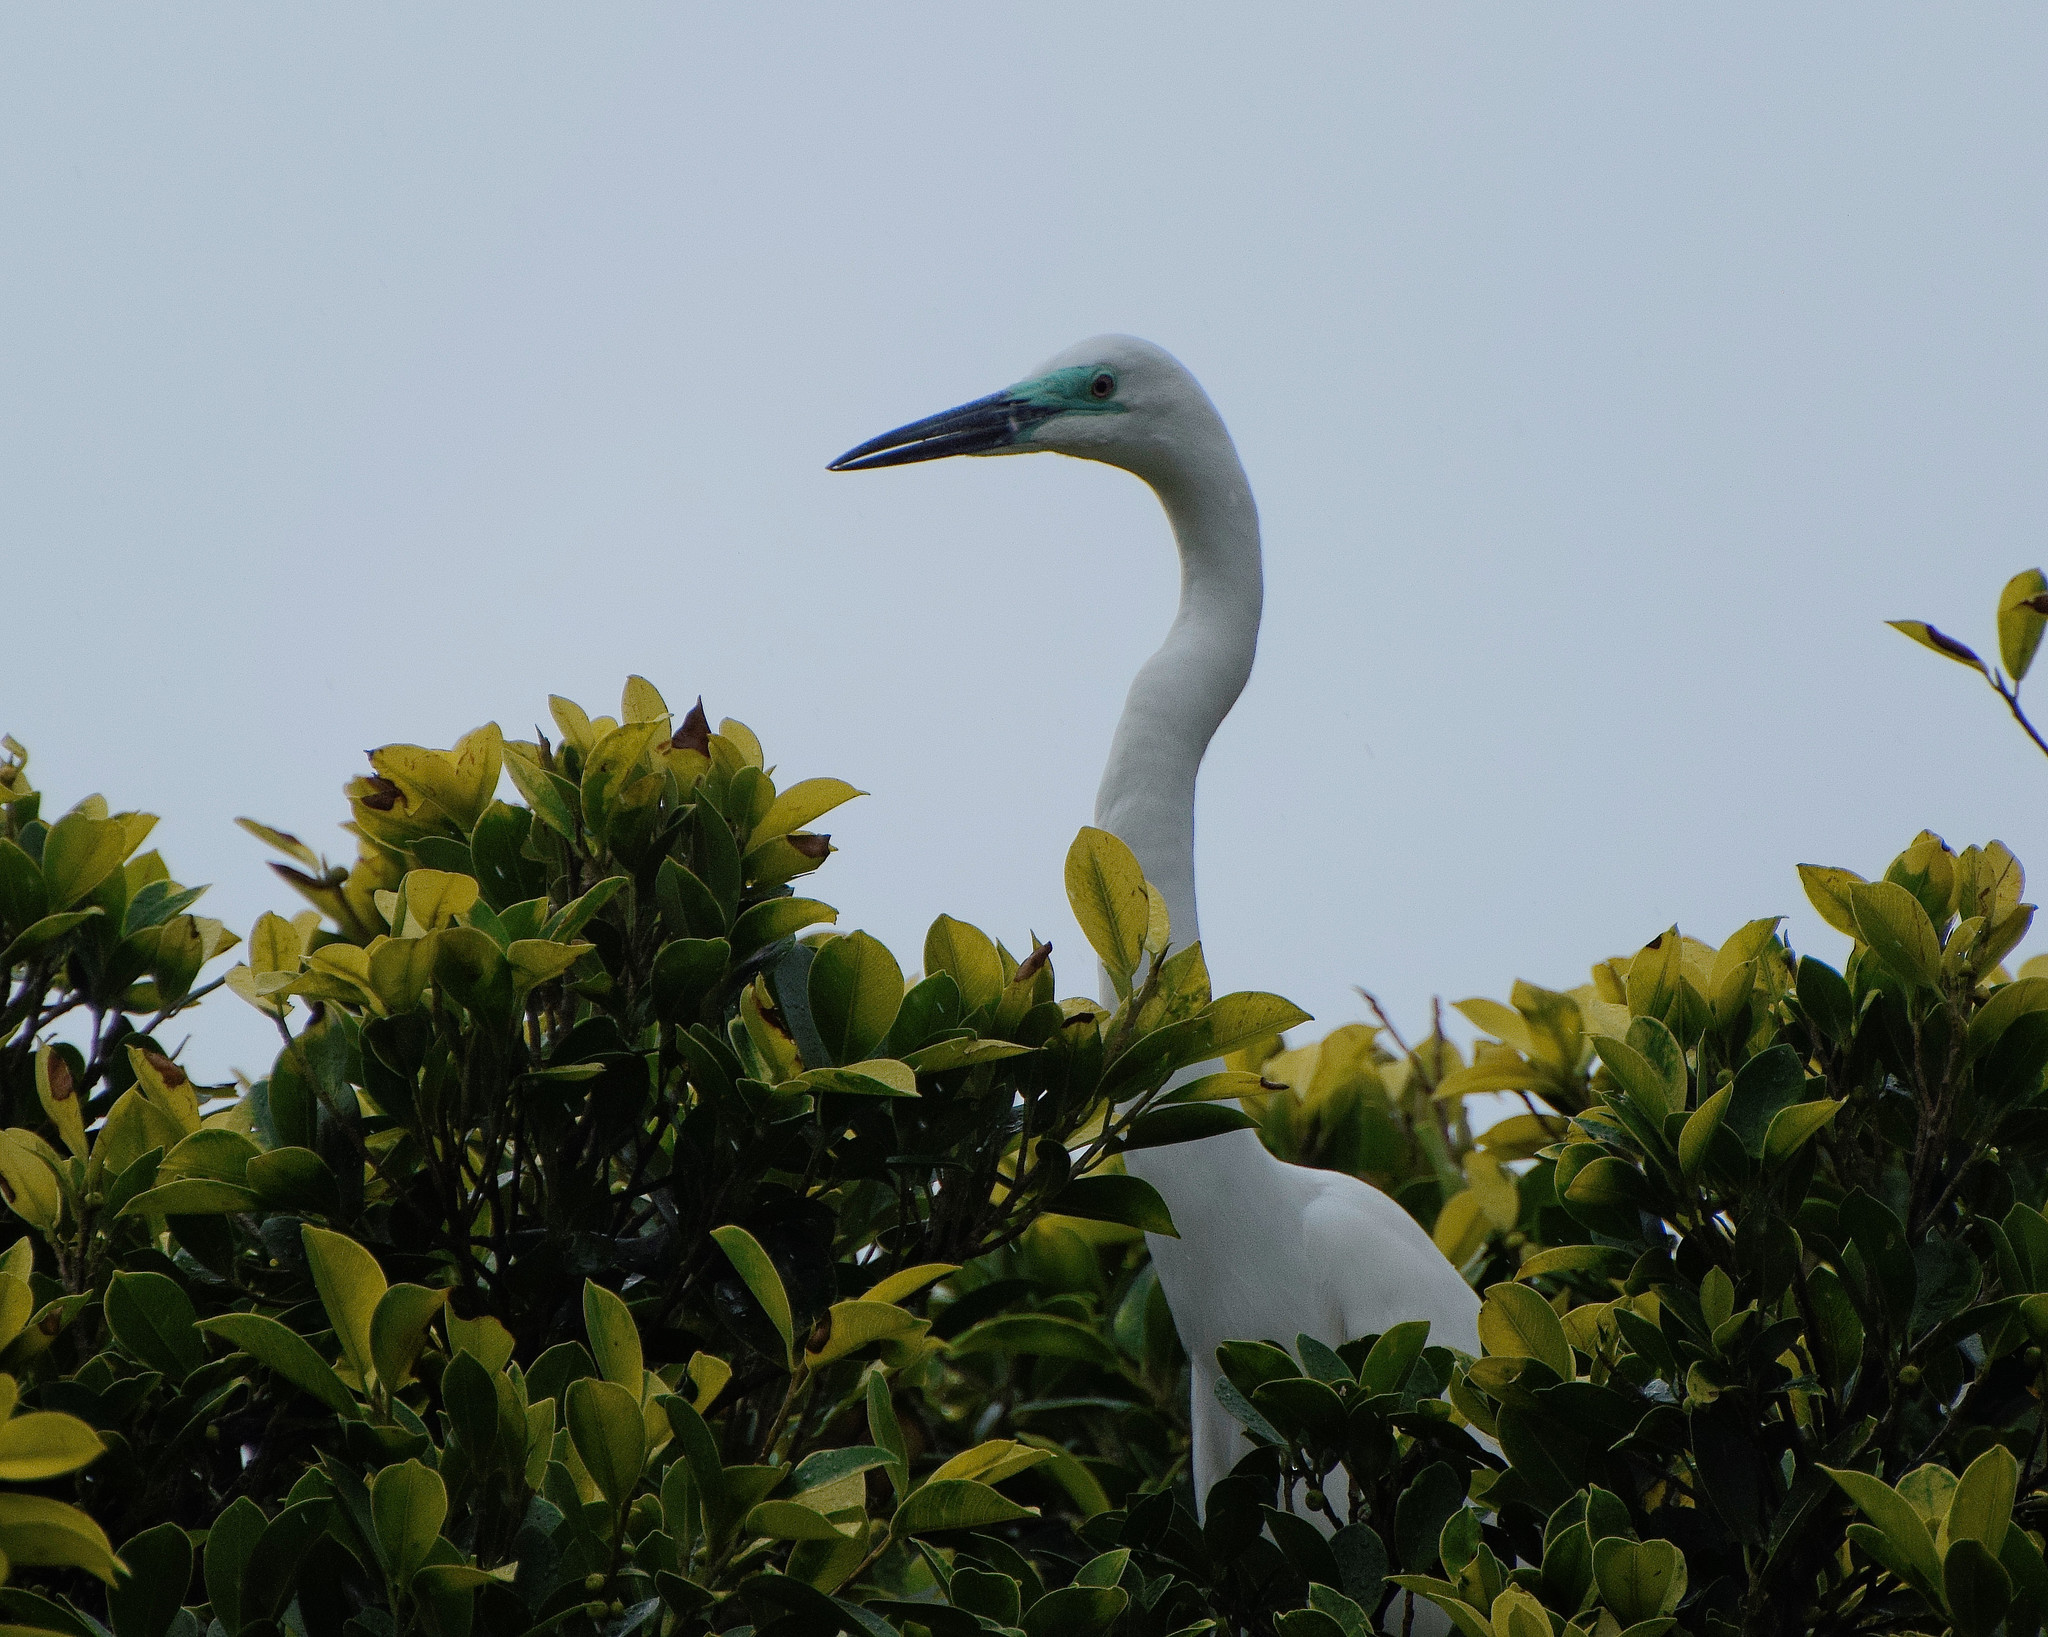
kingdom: Animalia
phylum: Chordata
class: Aves
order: Pelecaniformes
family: Ardeidae
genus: Ardea
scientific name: Ardea alba
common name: Great egret
